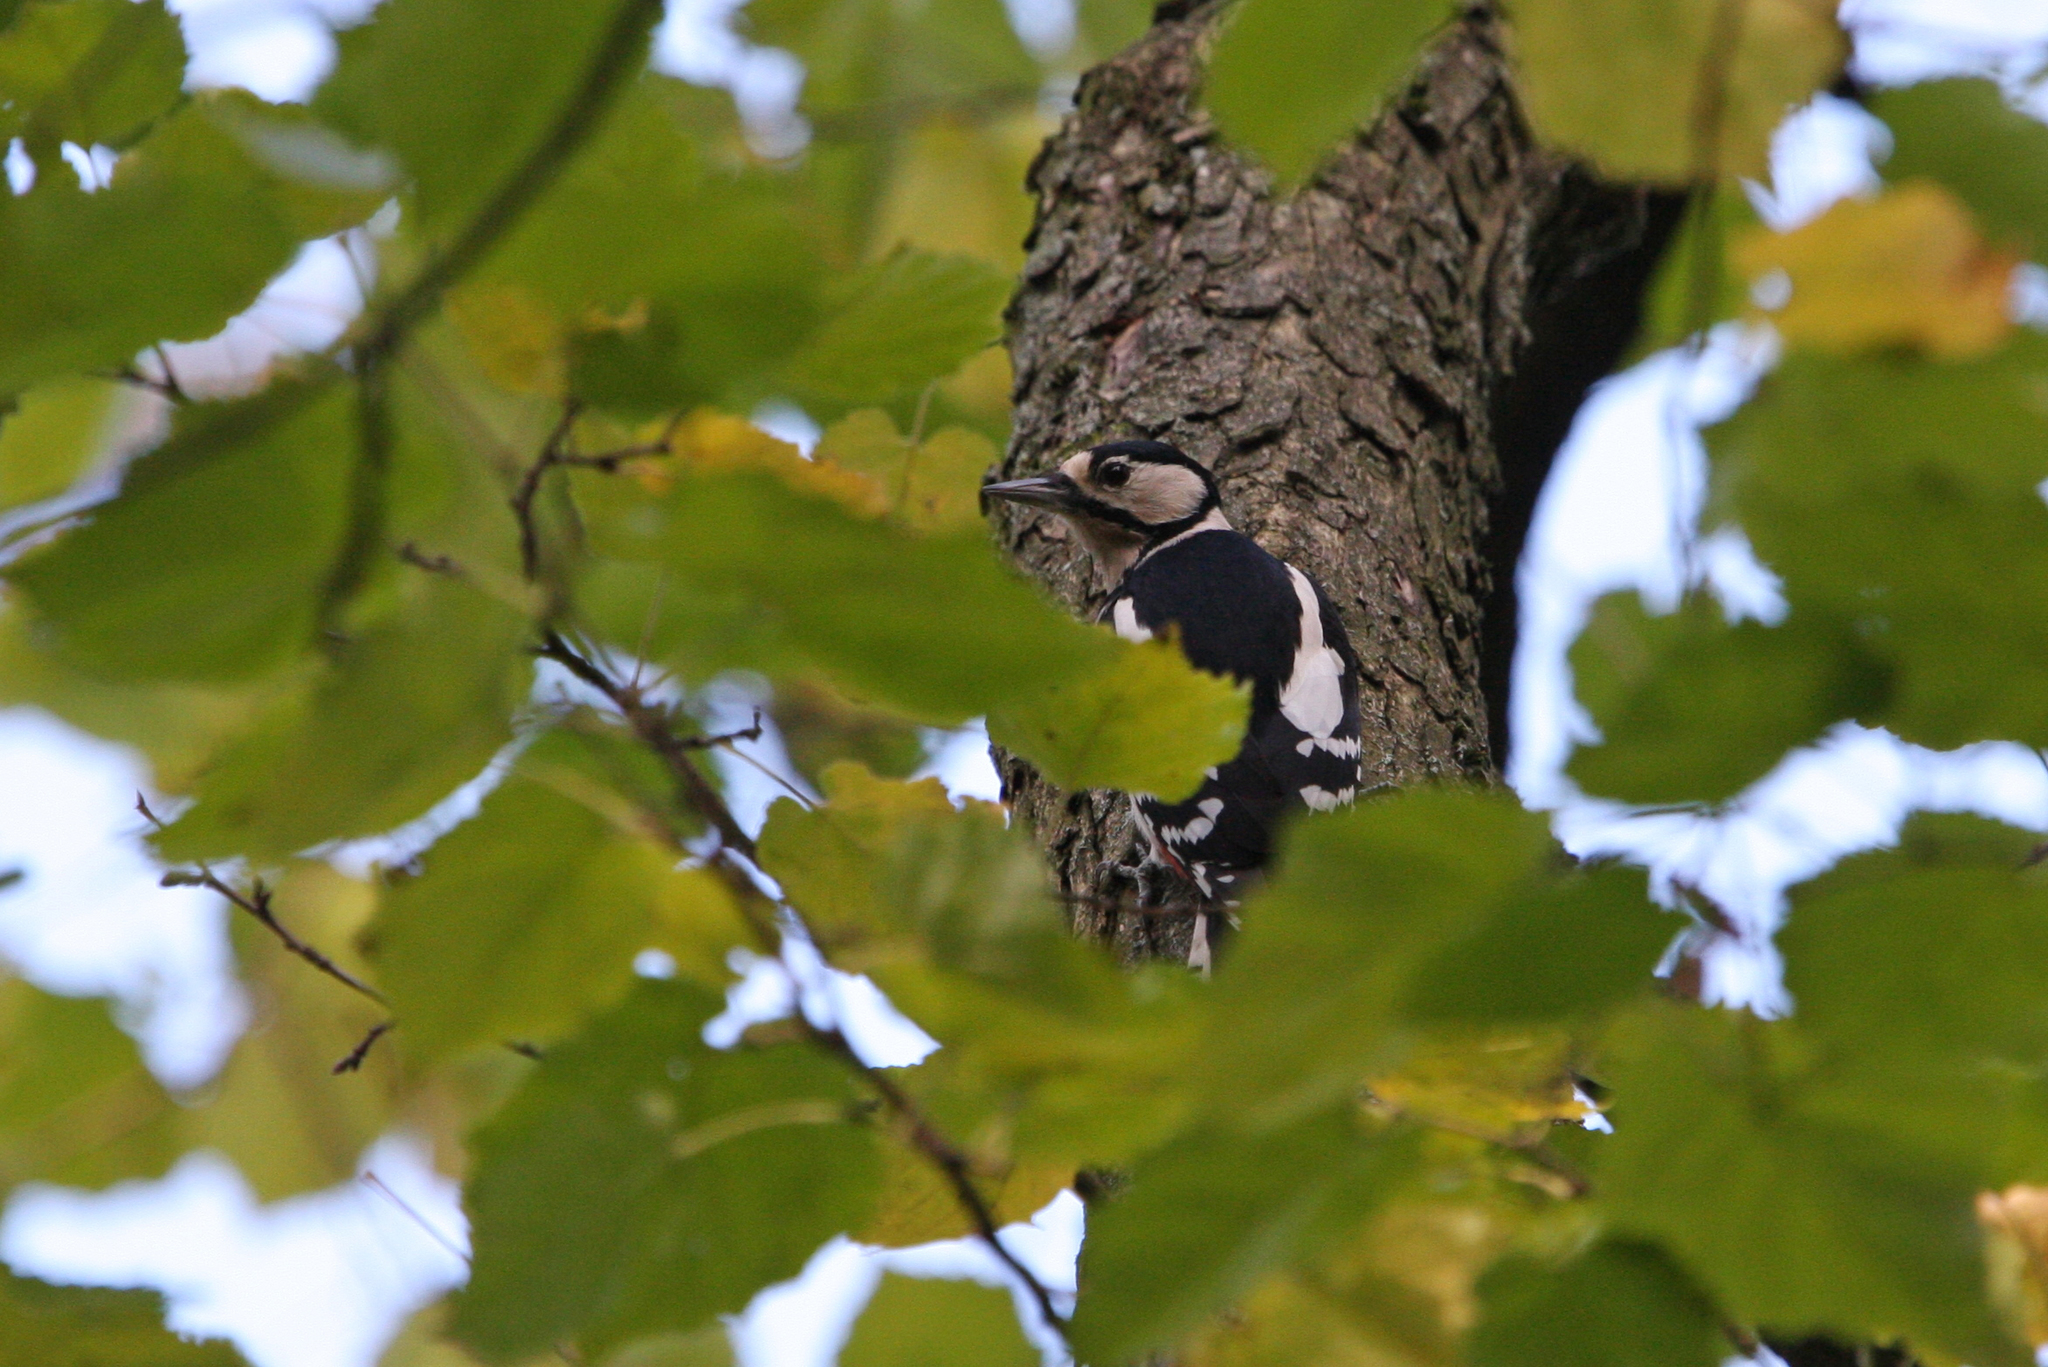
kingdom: Animalia
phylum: Chordata
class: Aves
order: Piciformes
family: Picidae
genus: Dendrocopos
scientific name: Dendrocopos major
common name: Great spotted woodpecker
